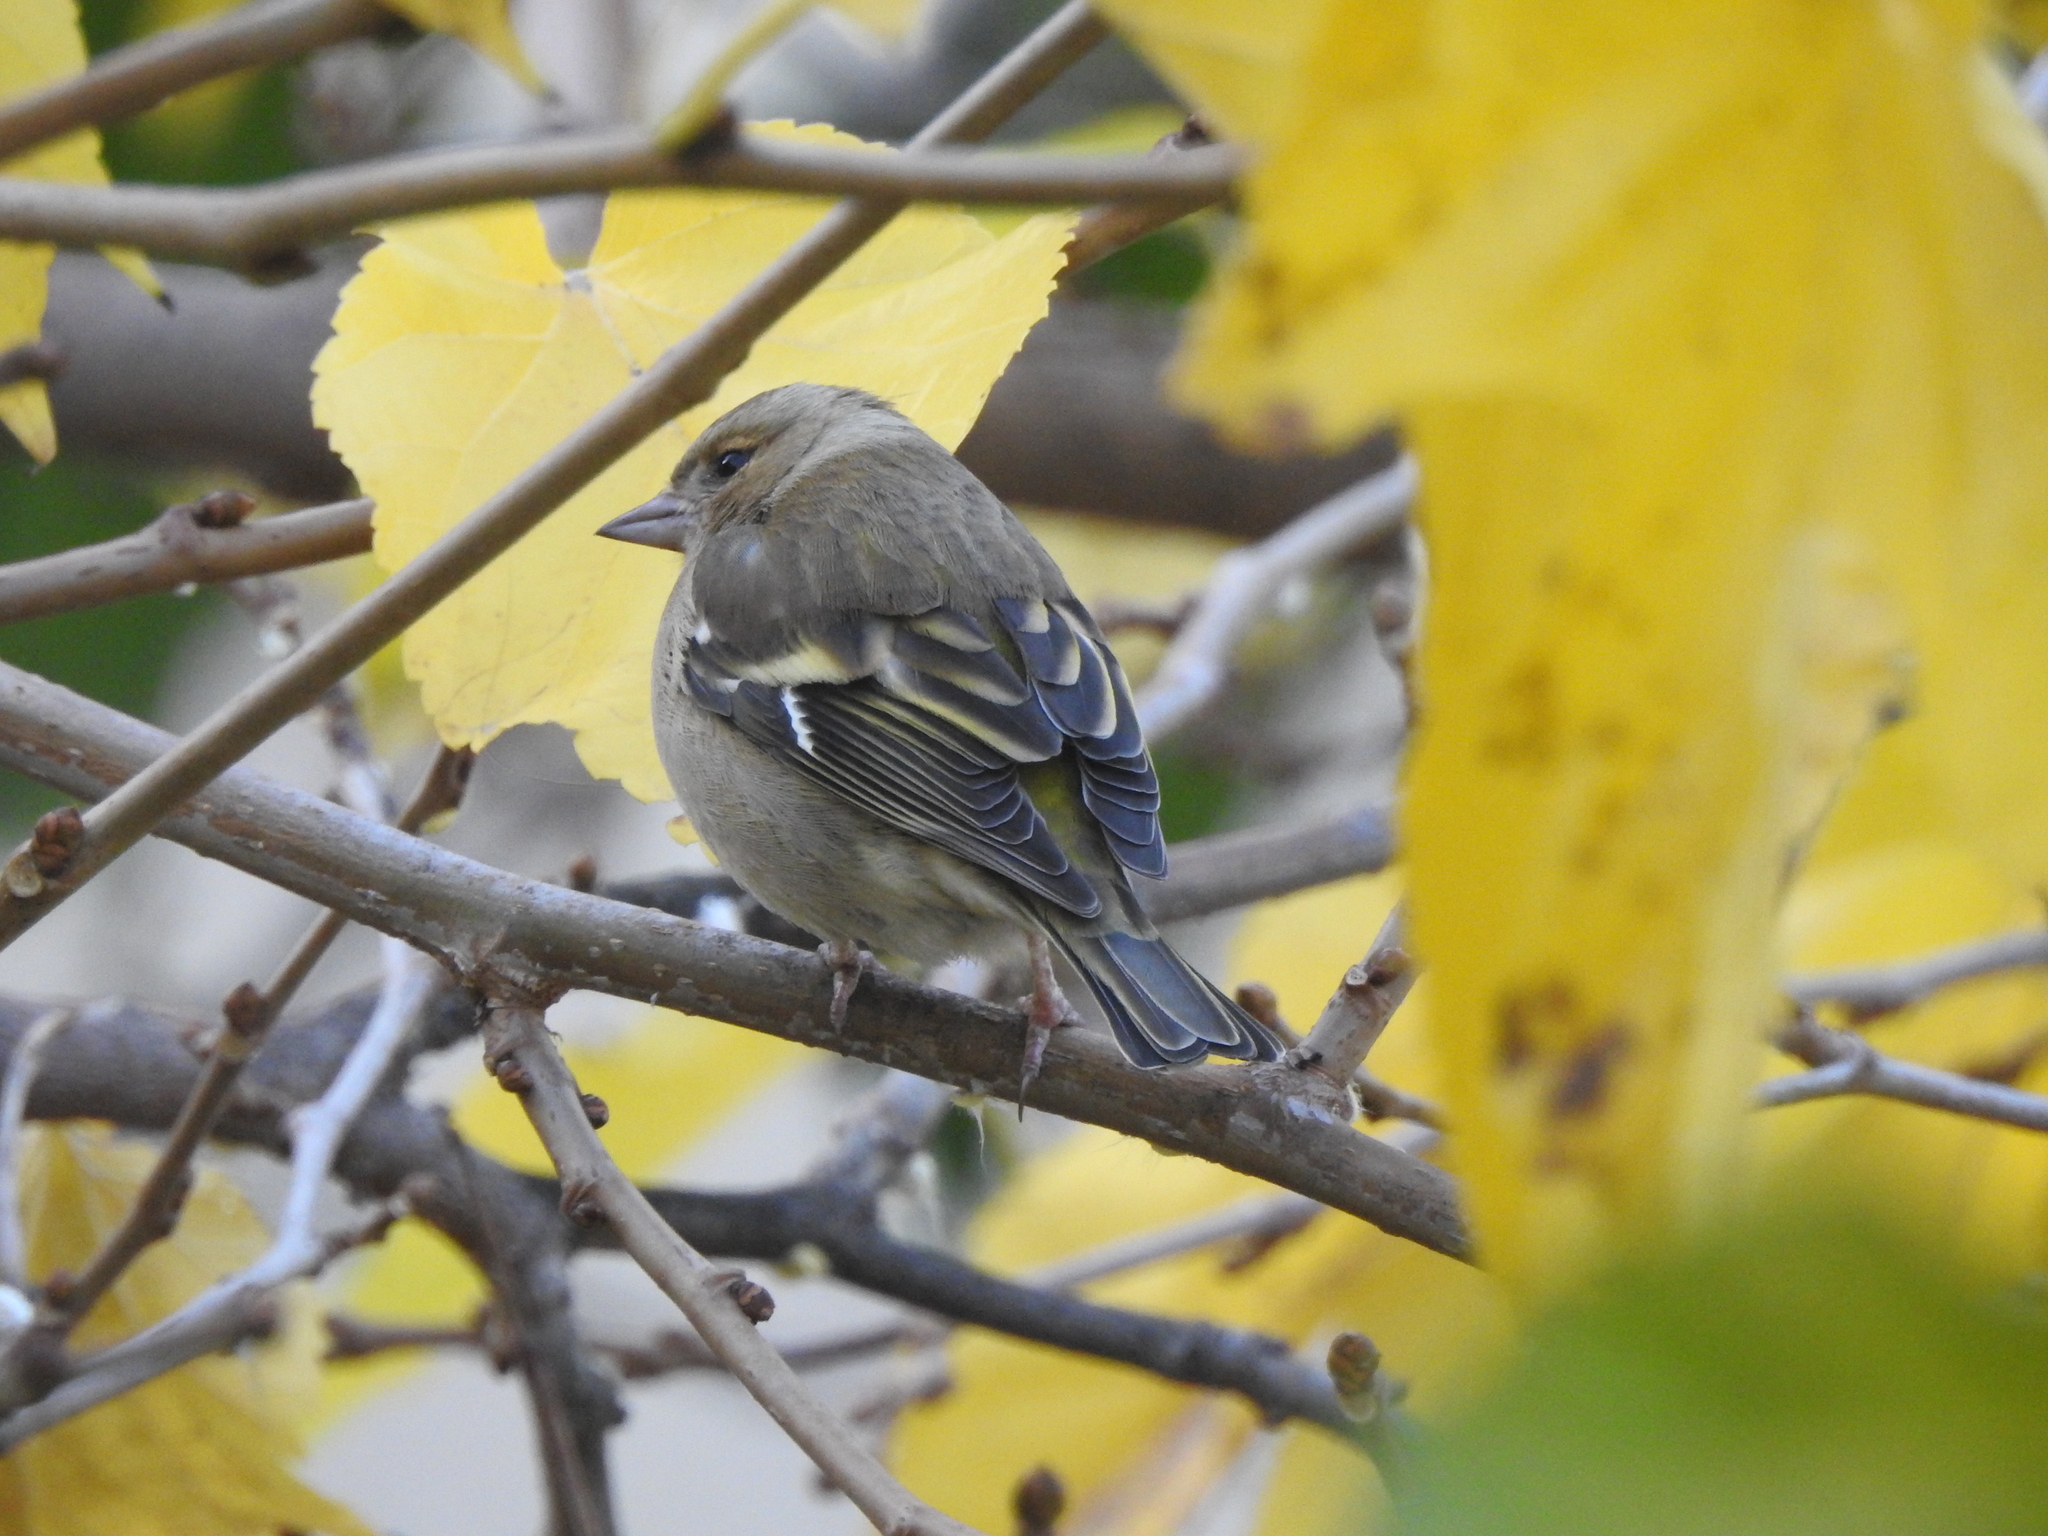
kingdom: Animalia
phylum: Chordata
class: Aves
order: Passeriformes
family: Fringillidae
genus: Fringilla
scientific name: Fringilla coelebs
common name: Common chaffinch
